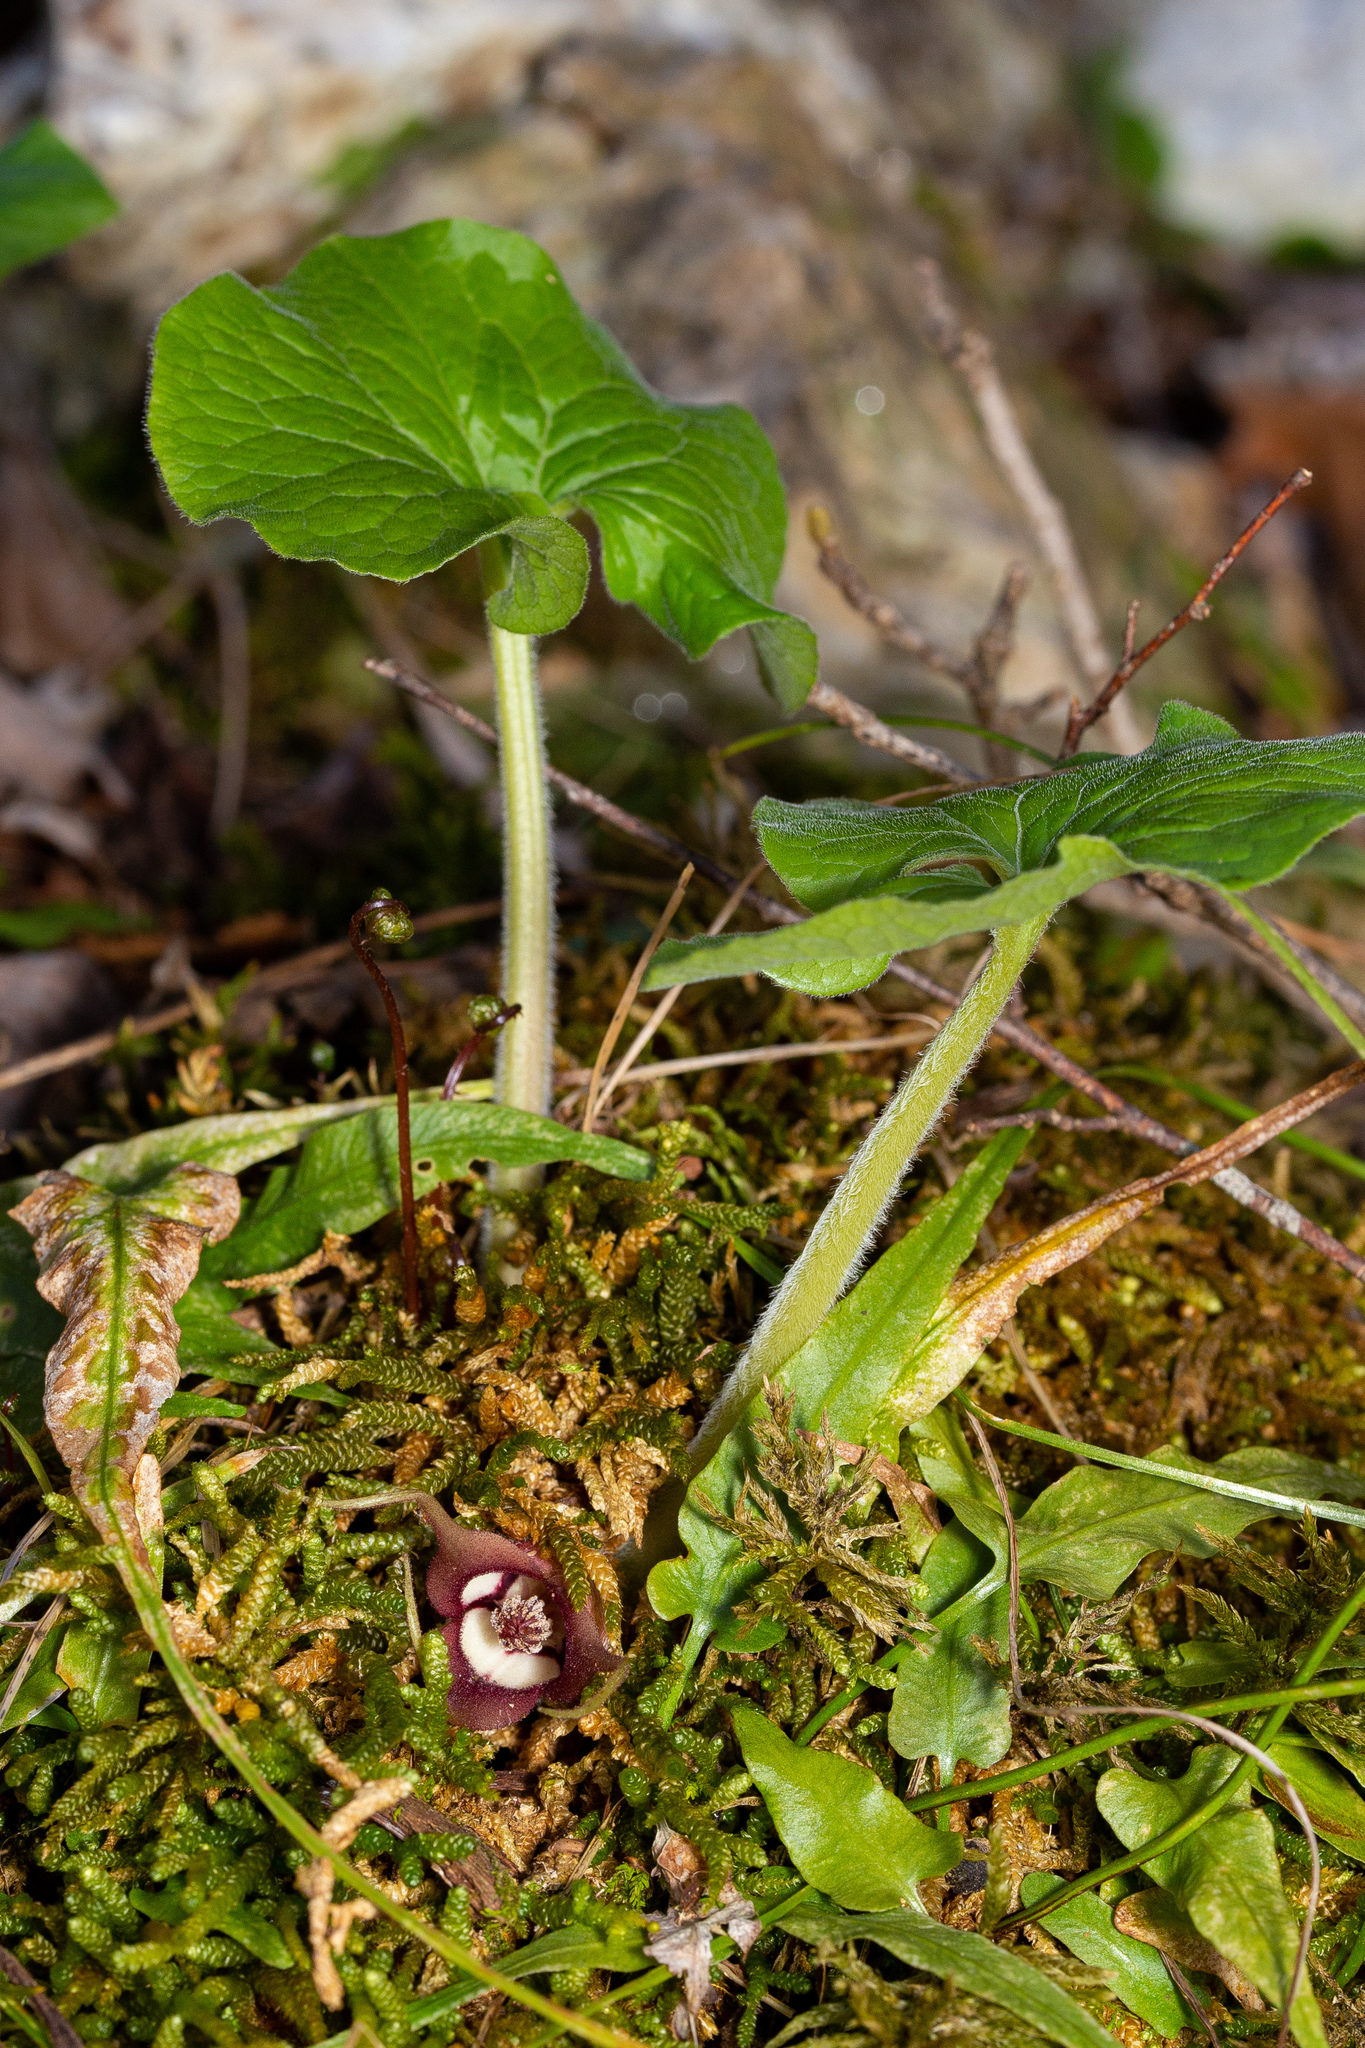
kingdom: Plantae
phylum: Tracheophyta
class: Magnoliopsida
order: Piperales
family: Aristolochiaceae
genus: Asarum
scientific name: Asarum canadense
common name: Wild ginger
